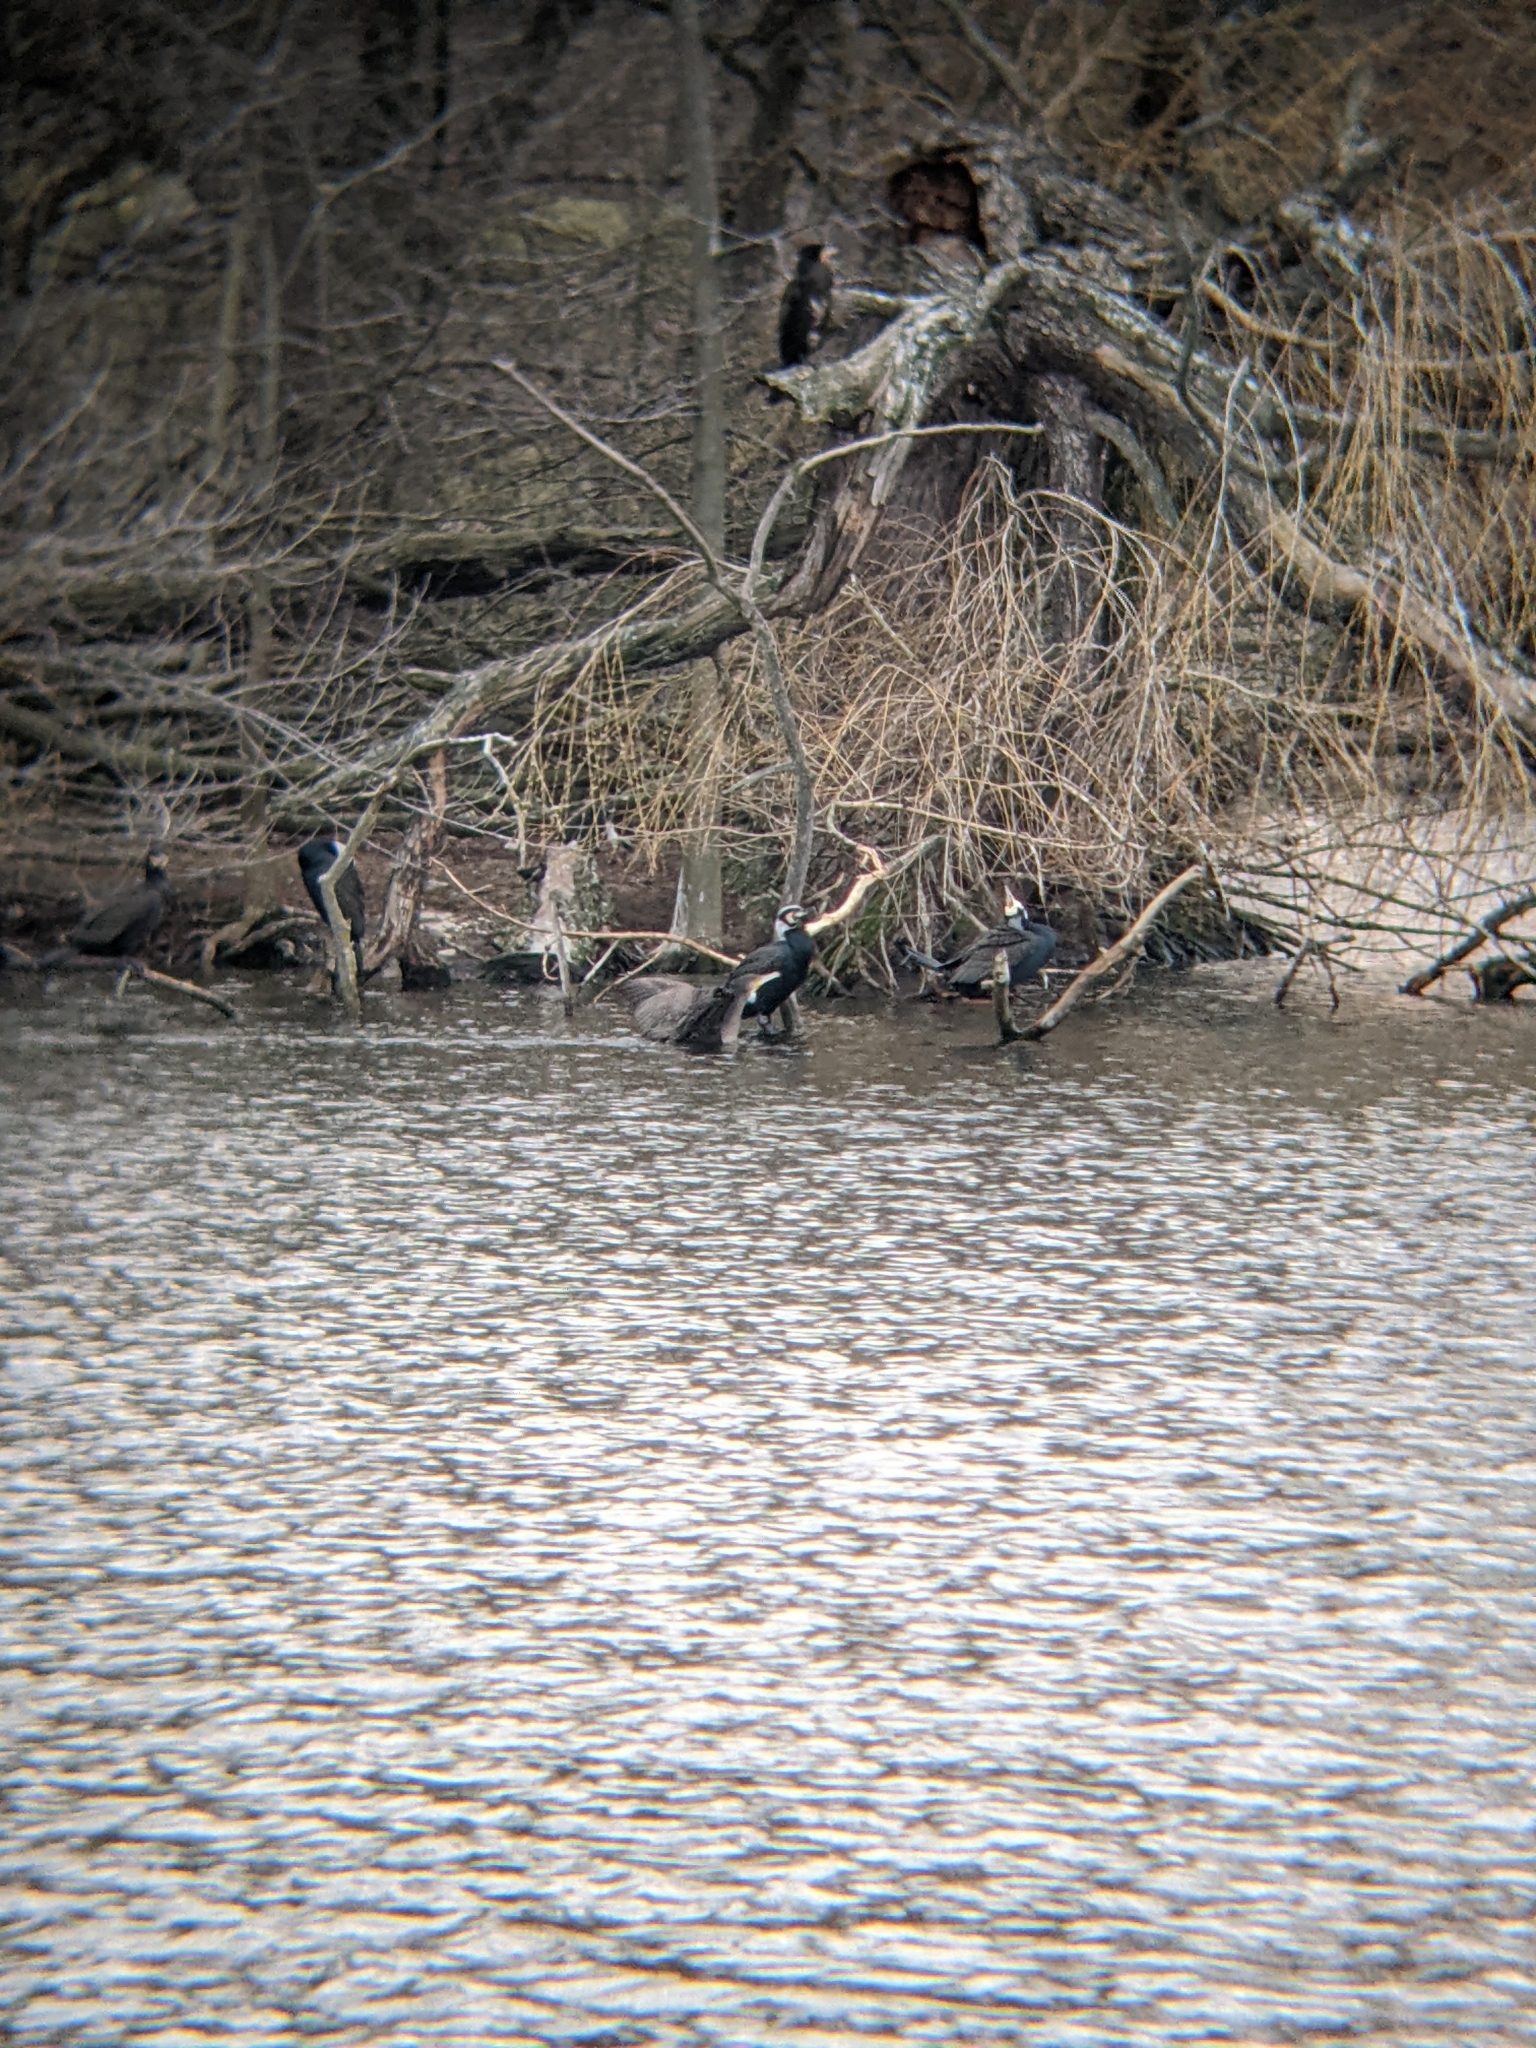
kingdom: Animalia
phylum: Chordata
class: Aves
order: Suliformes
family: Phalacrocoracidae
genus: Phalacrocorax
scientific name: Phalacrocorax carbo
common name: Great cormorant
